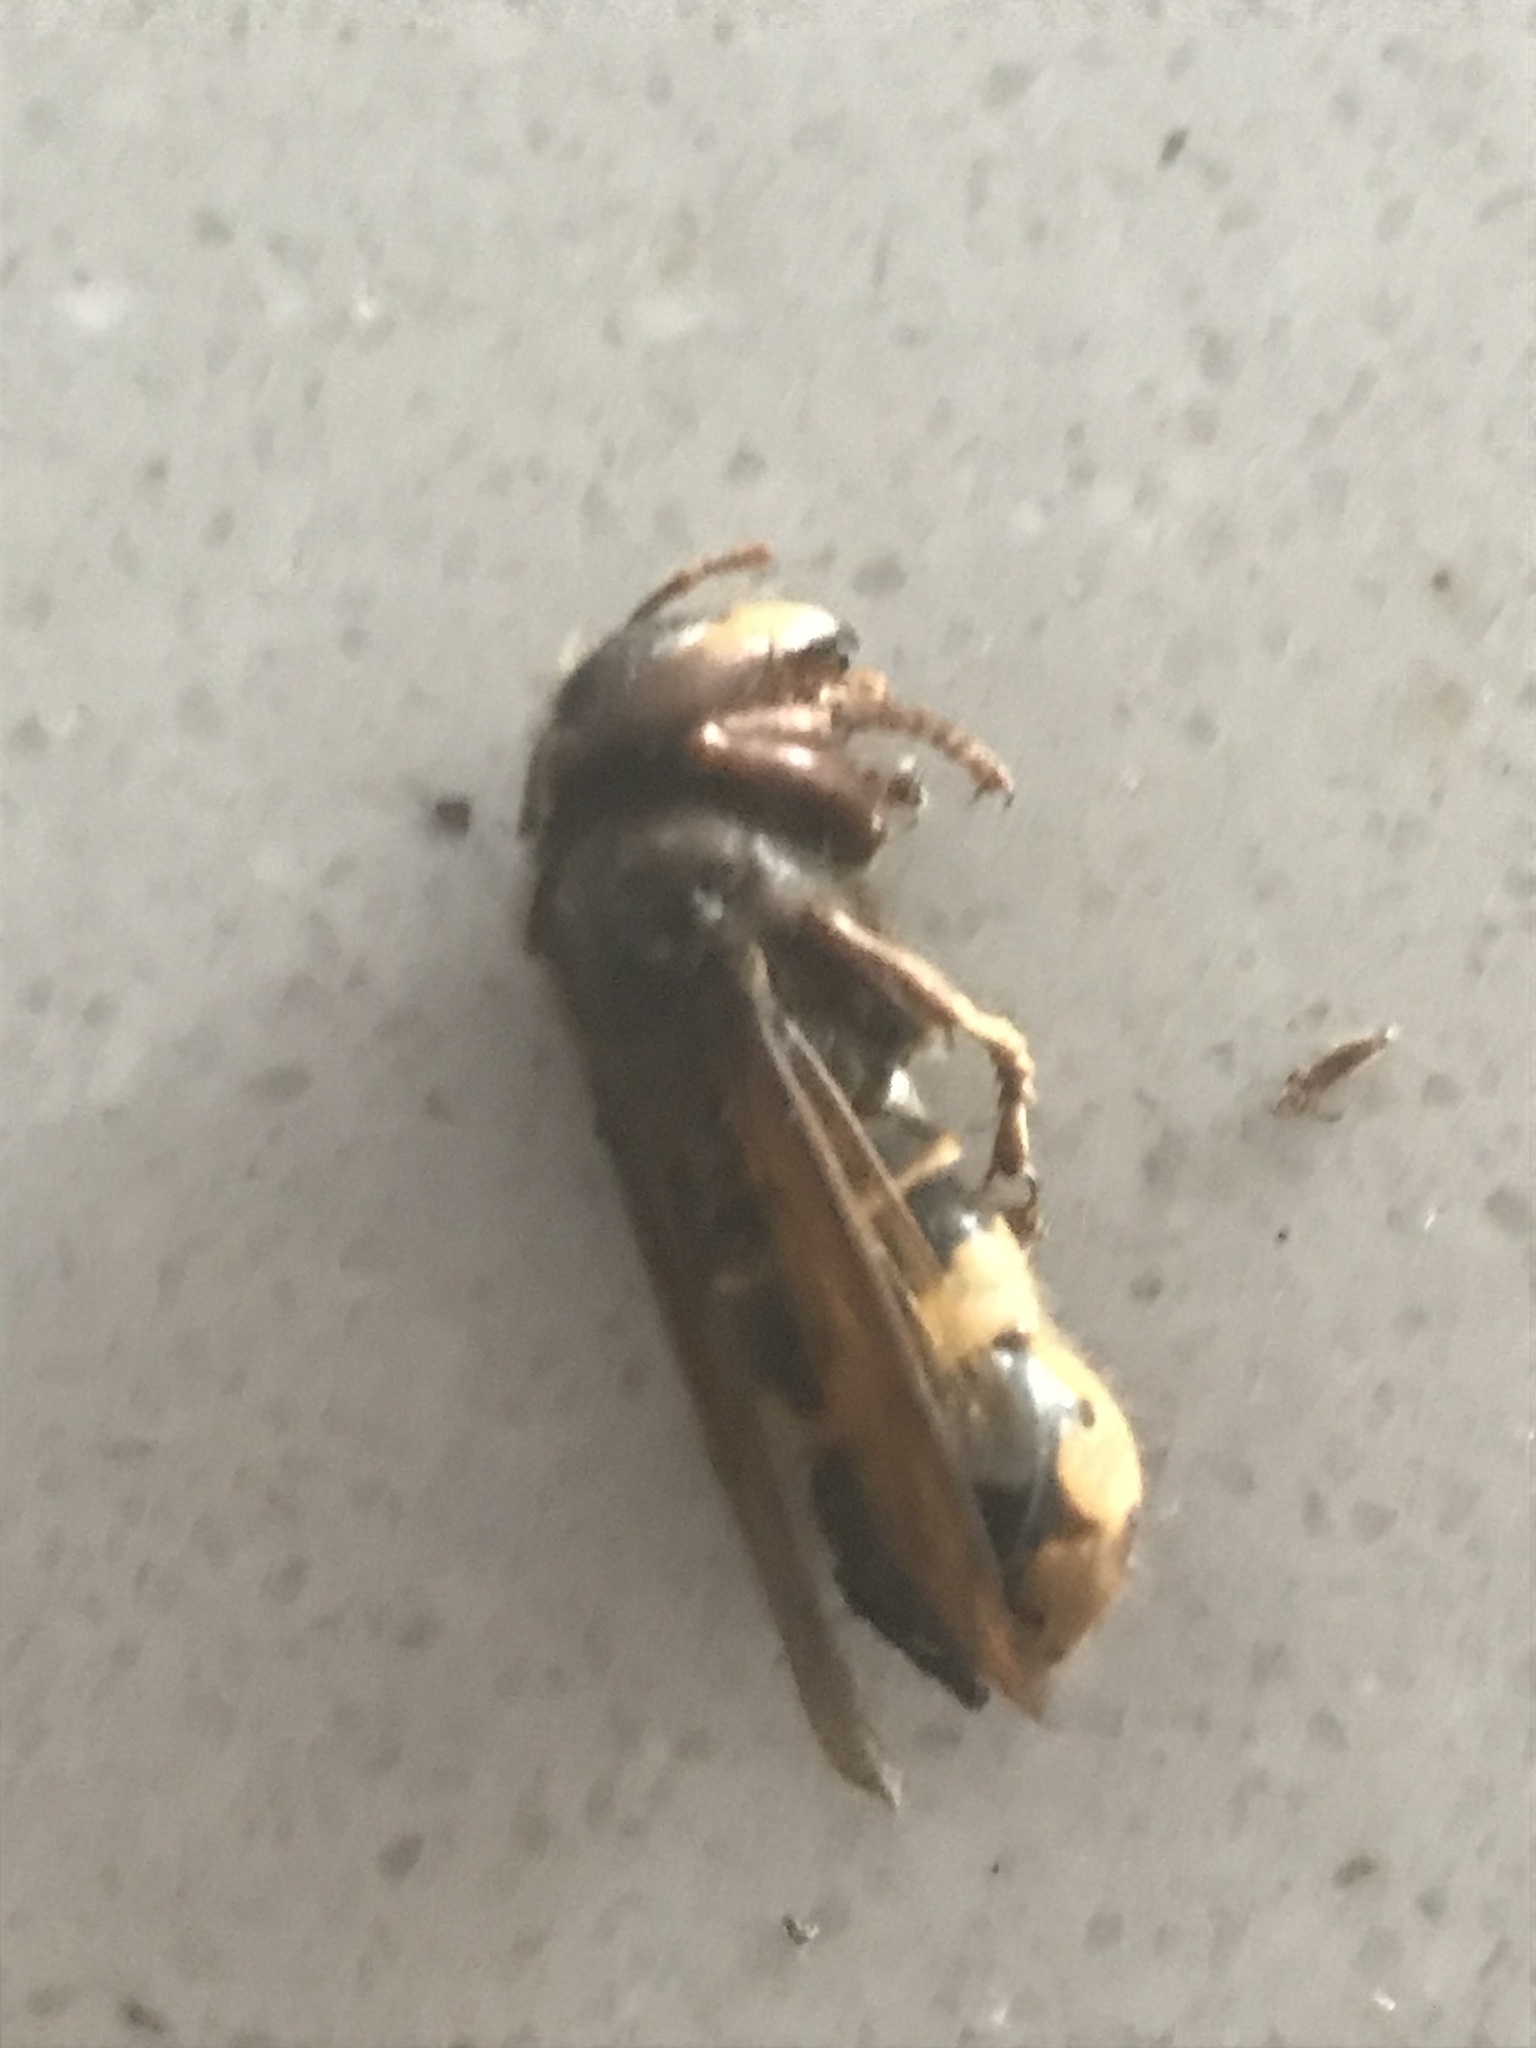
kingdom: Animalia
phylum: Arthropoda
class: Insecta
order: Hymenoptera
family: Vespidae
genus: Vespa
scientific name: Vespa crabro
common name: Hornet
